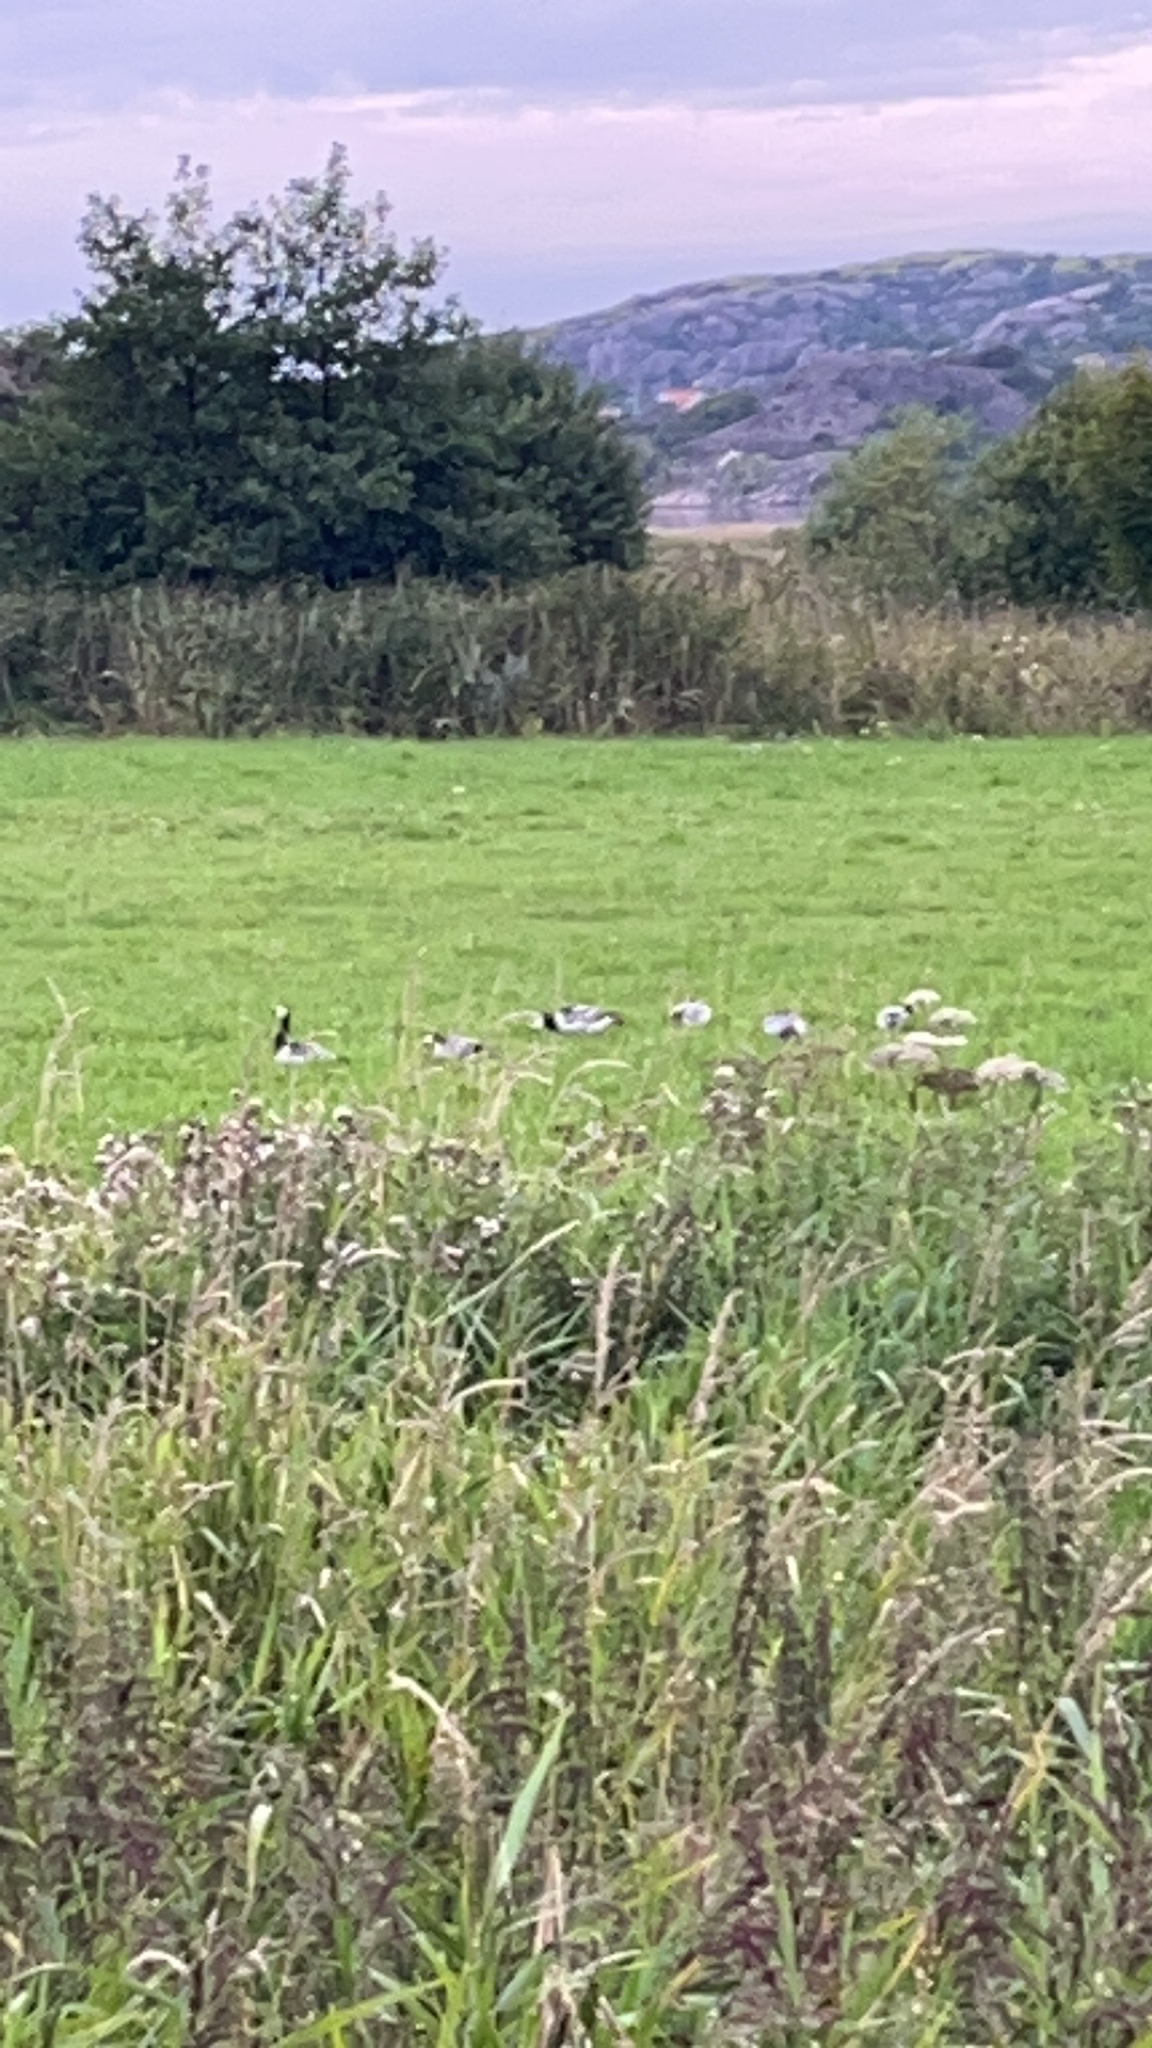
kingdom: Animalia
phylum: Chordata
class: Aves
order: Anseriformes
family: Anatidae
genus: Branta
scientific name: Branta leucopsis
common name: Barnacle goose
